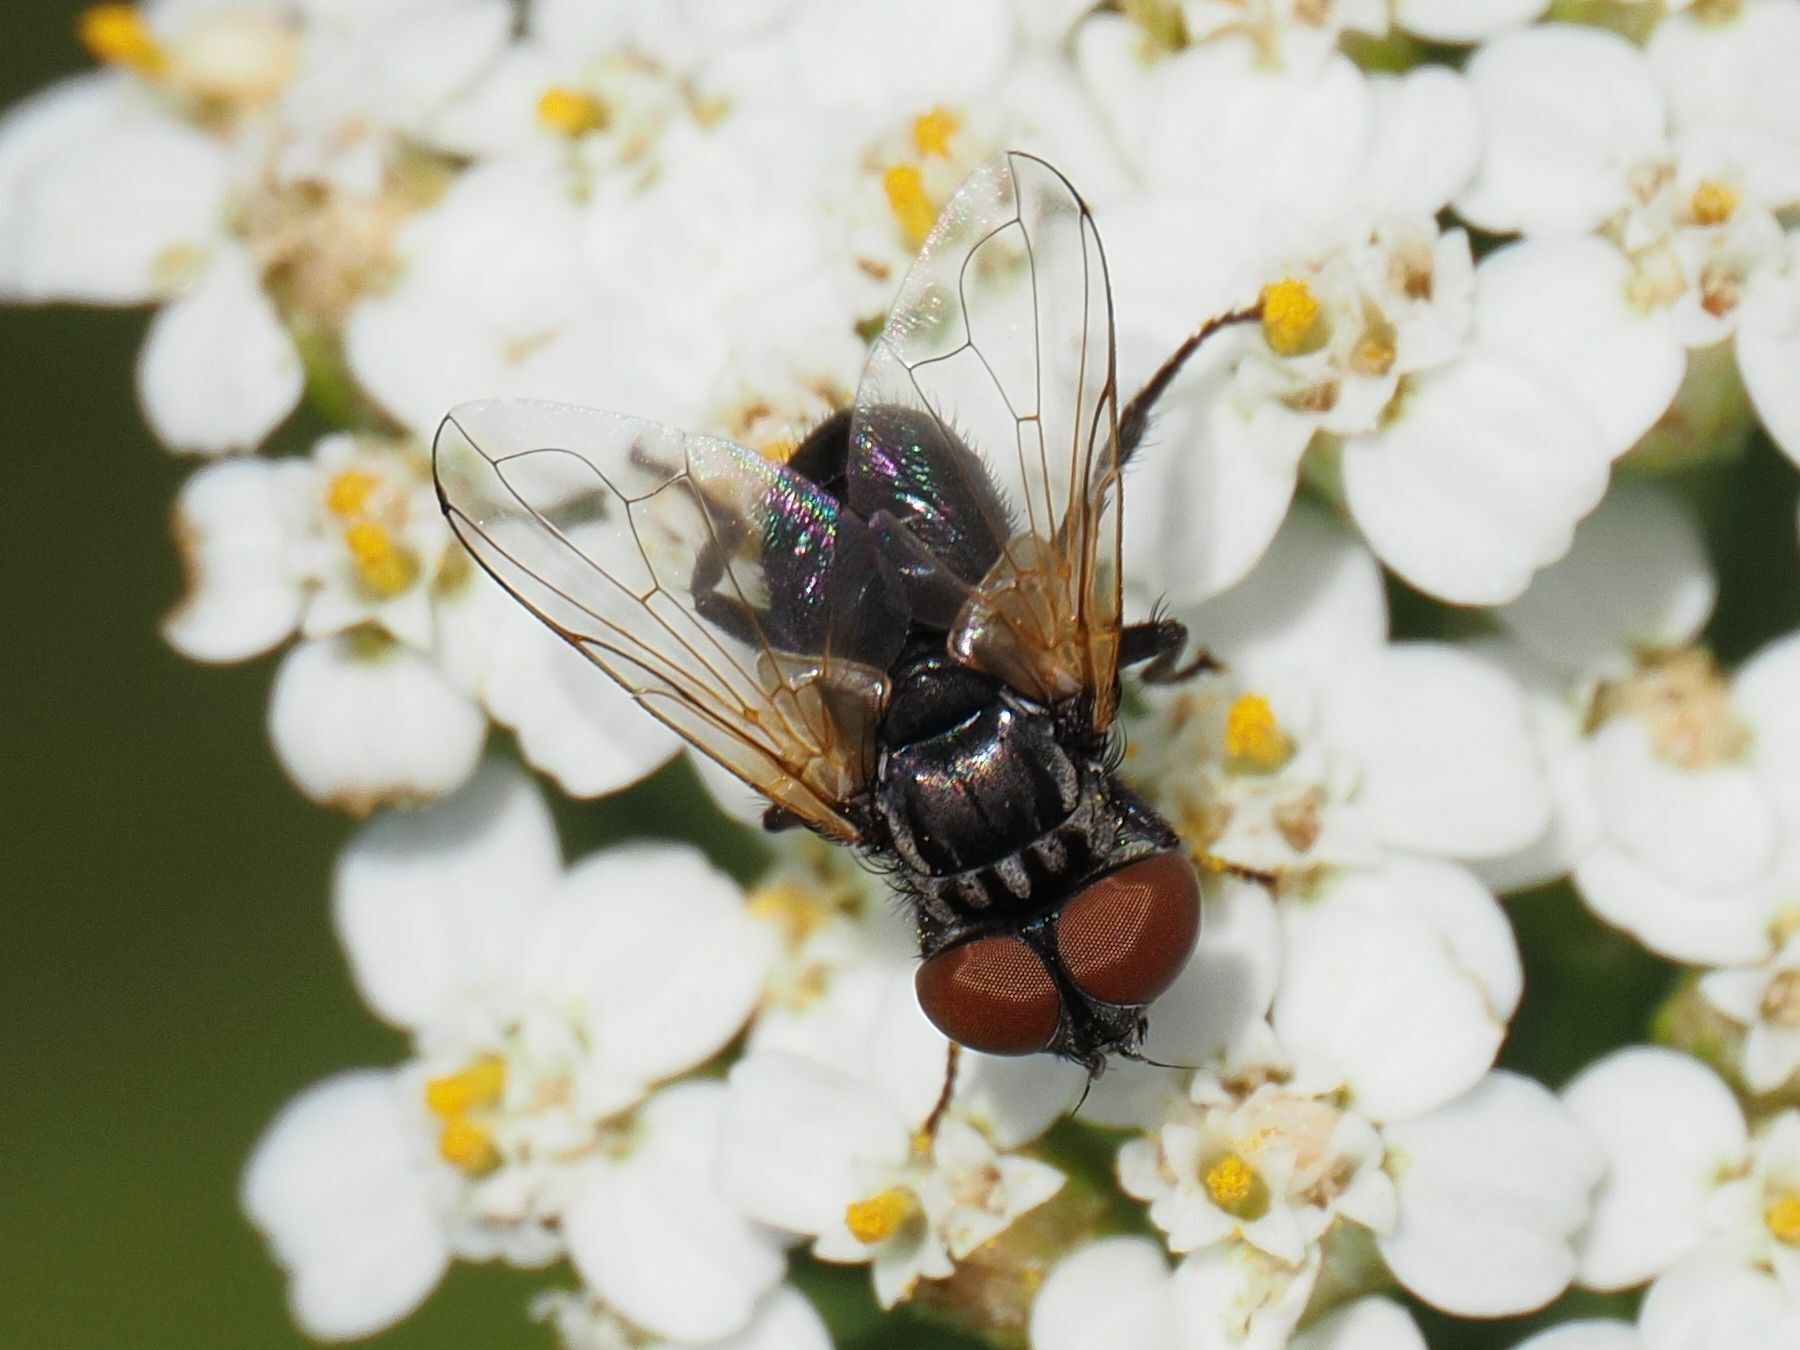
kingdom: Animalia
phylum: Arthropoda
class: Insecta
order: Diptera
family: Tachinidae
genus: Phasia
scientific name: Phasia obesa
